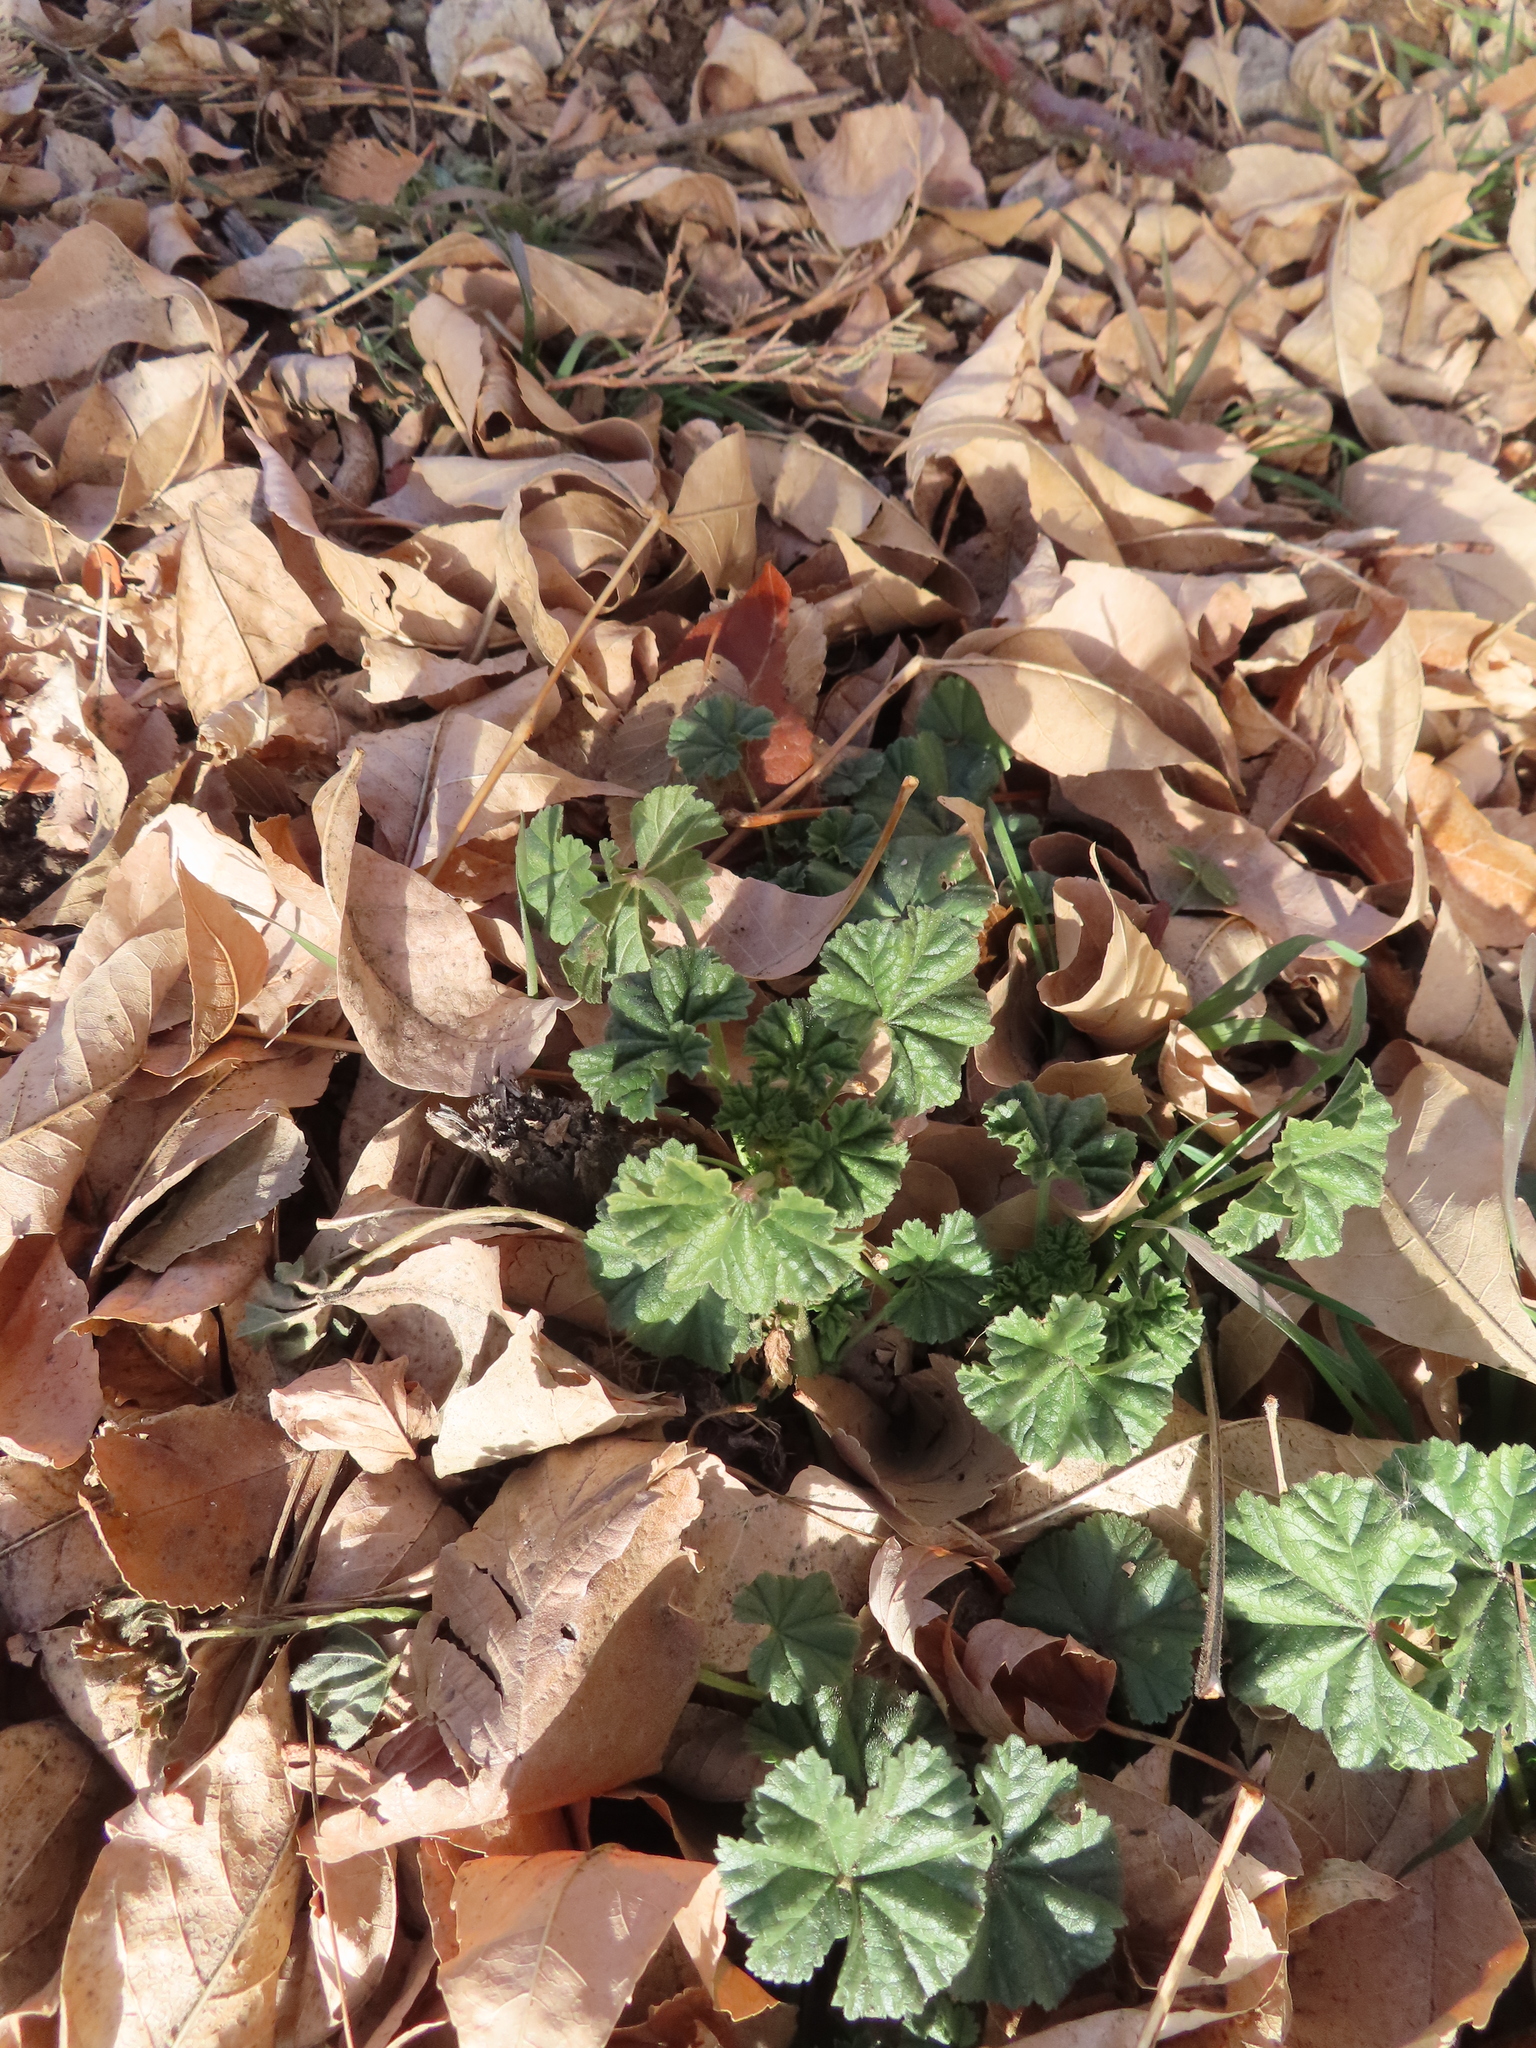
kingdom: Plantae
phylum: Tracheophyta
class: Magnoliopsida
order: Malvales
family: Malvaceae
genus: Malva
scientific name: Malva neglecta
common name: Common mallow
